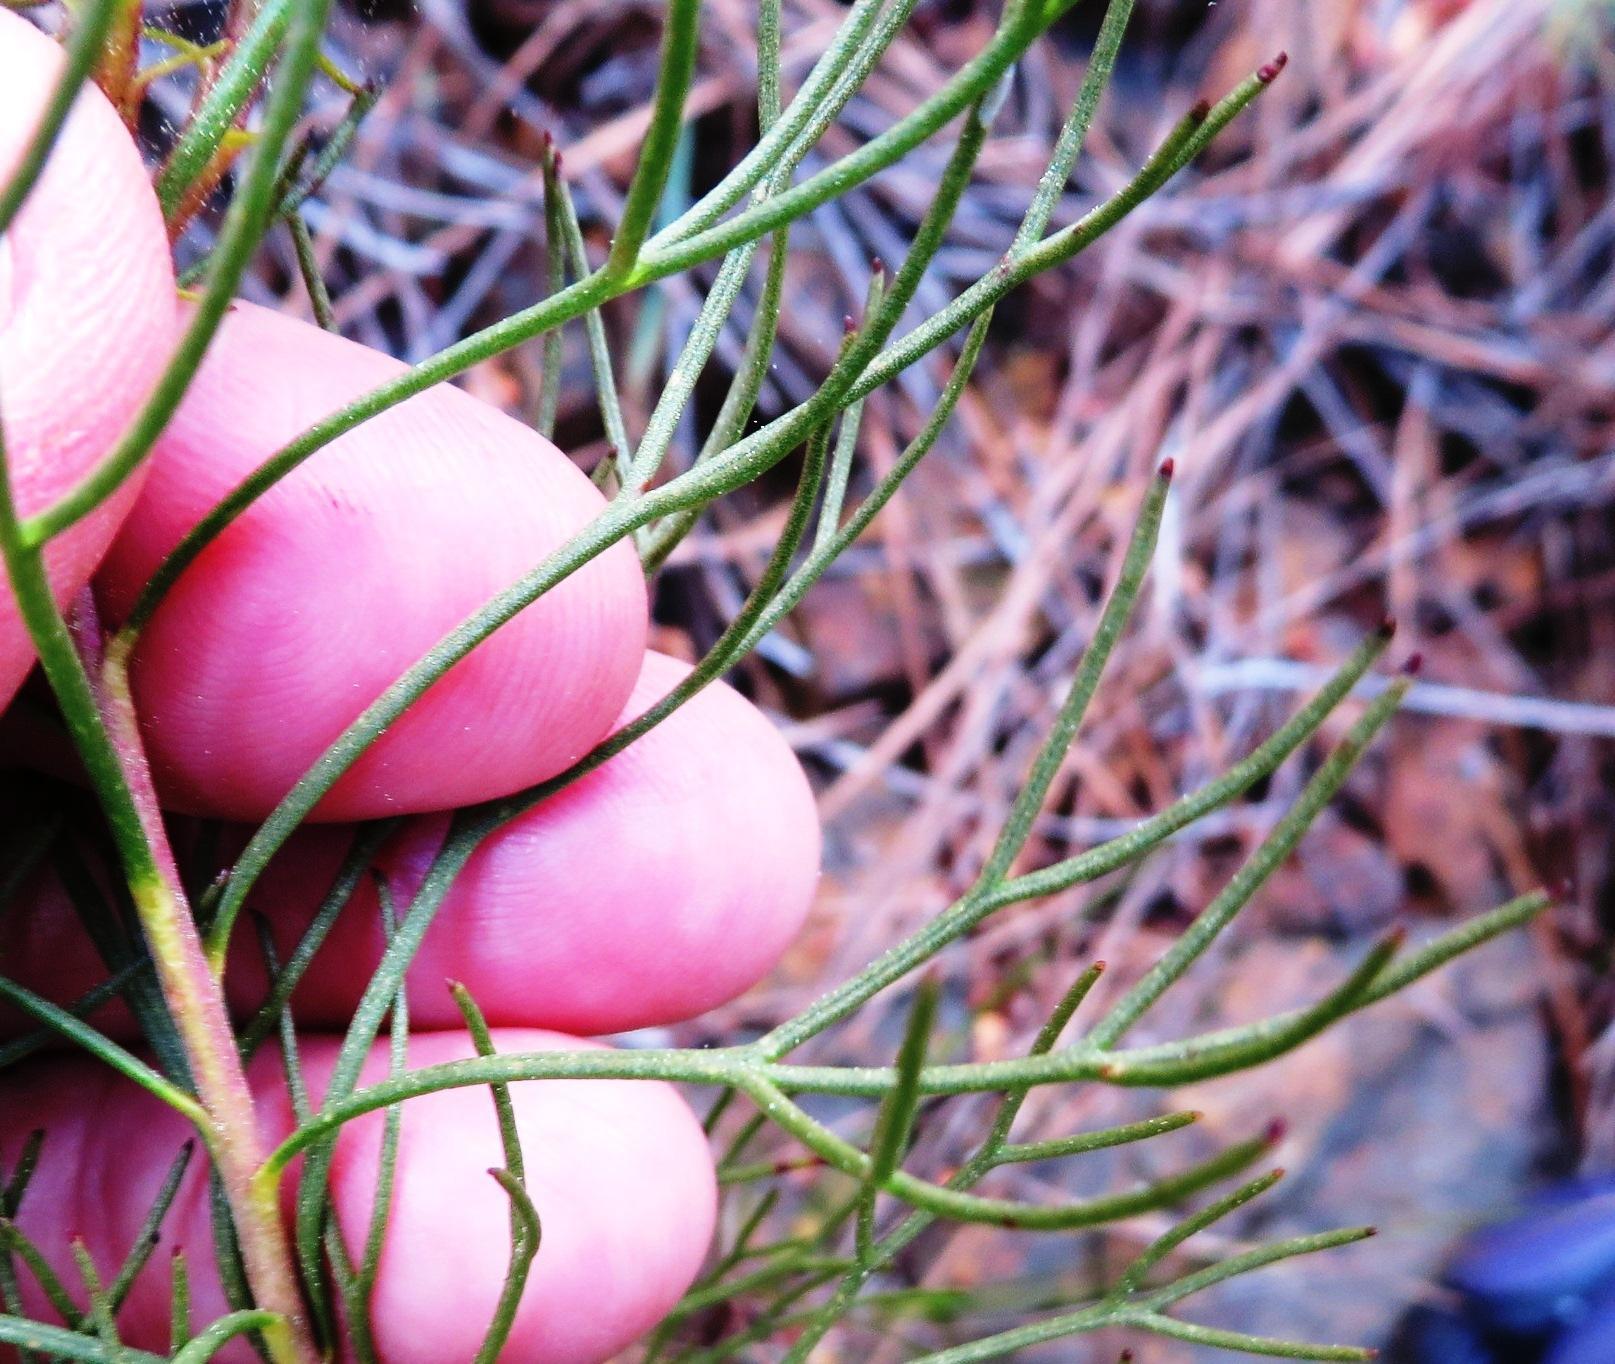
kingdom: Plantae
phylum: Tracheophyta
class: Magnoliopsida
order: Proteales
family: Proteaceae
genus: Serruria
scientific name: Serruria phylicoides
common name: Bearded spiderhead
